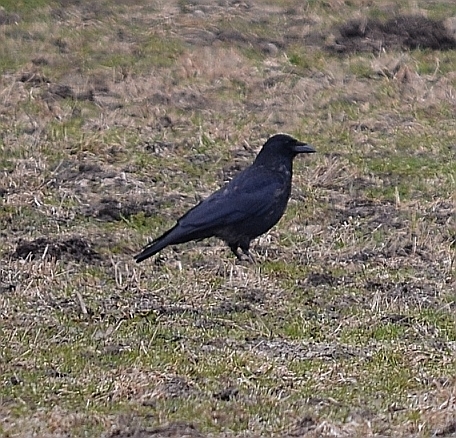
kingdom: Animalia
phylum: Chordata
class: Aves
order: Passeriformes
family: Corvidae
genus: Corvus
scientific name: Corvus
